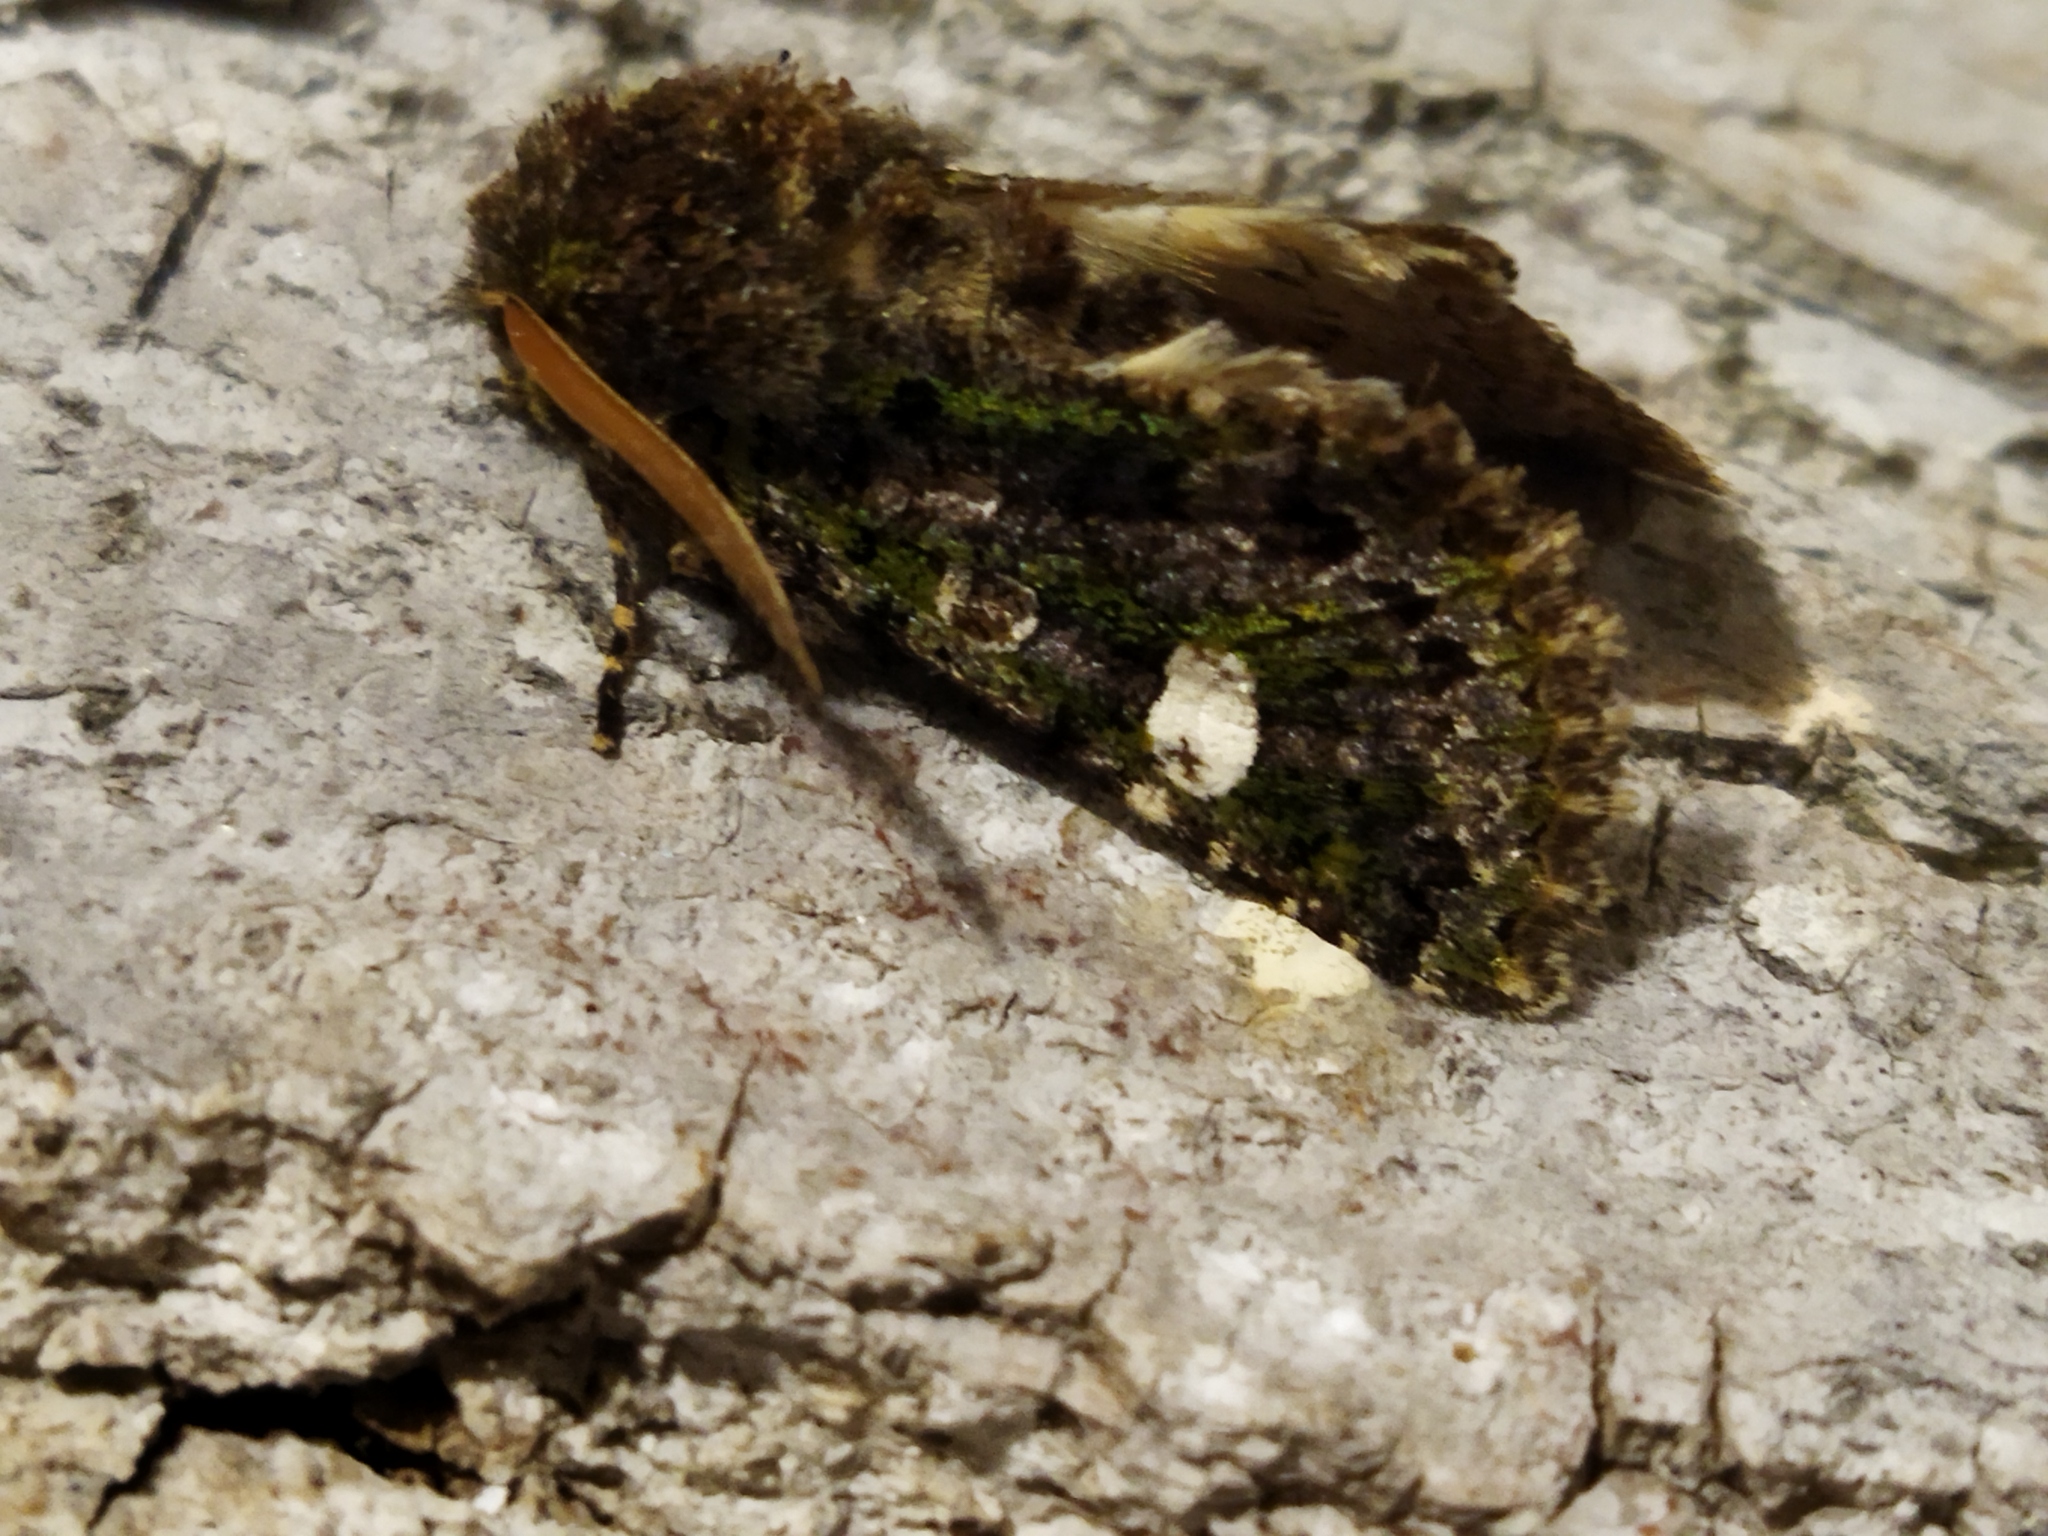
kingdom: Animalia
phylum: Arthropoda
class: Insecta
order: Lepidoptera
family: Noctuidae
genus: Valeria
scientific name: Valeria oleagina
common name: Green-brindled dot
